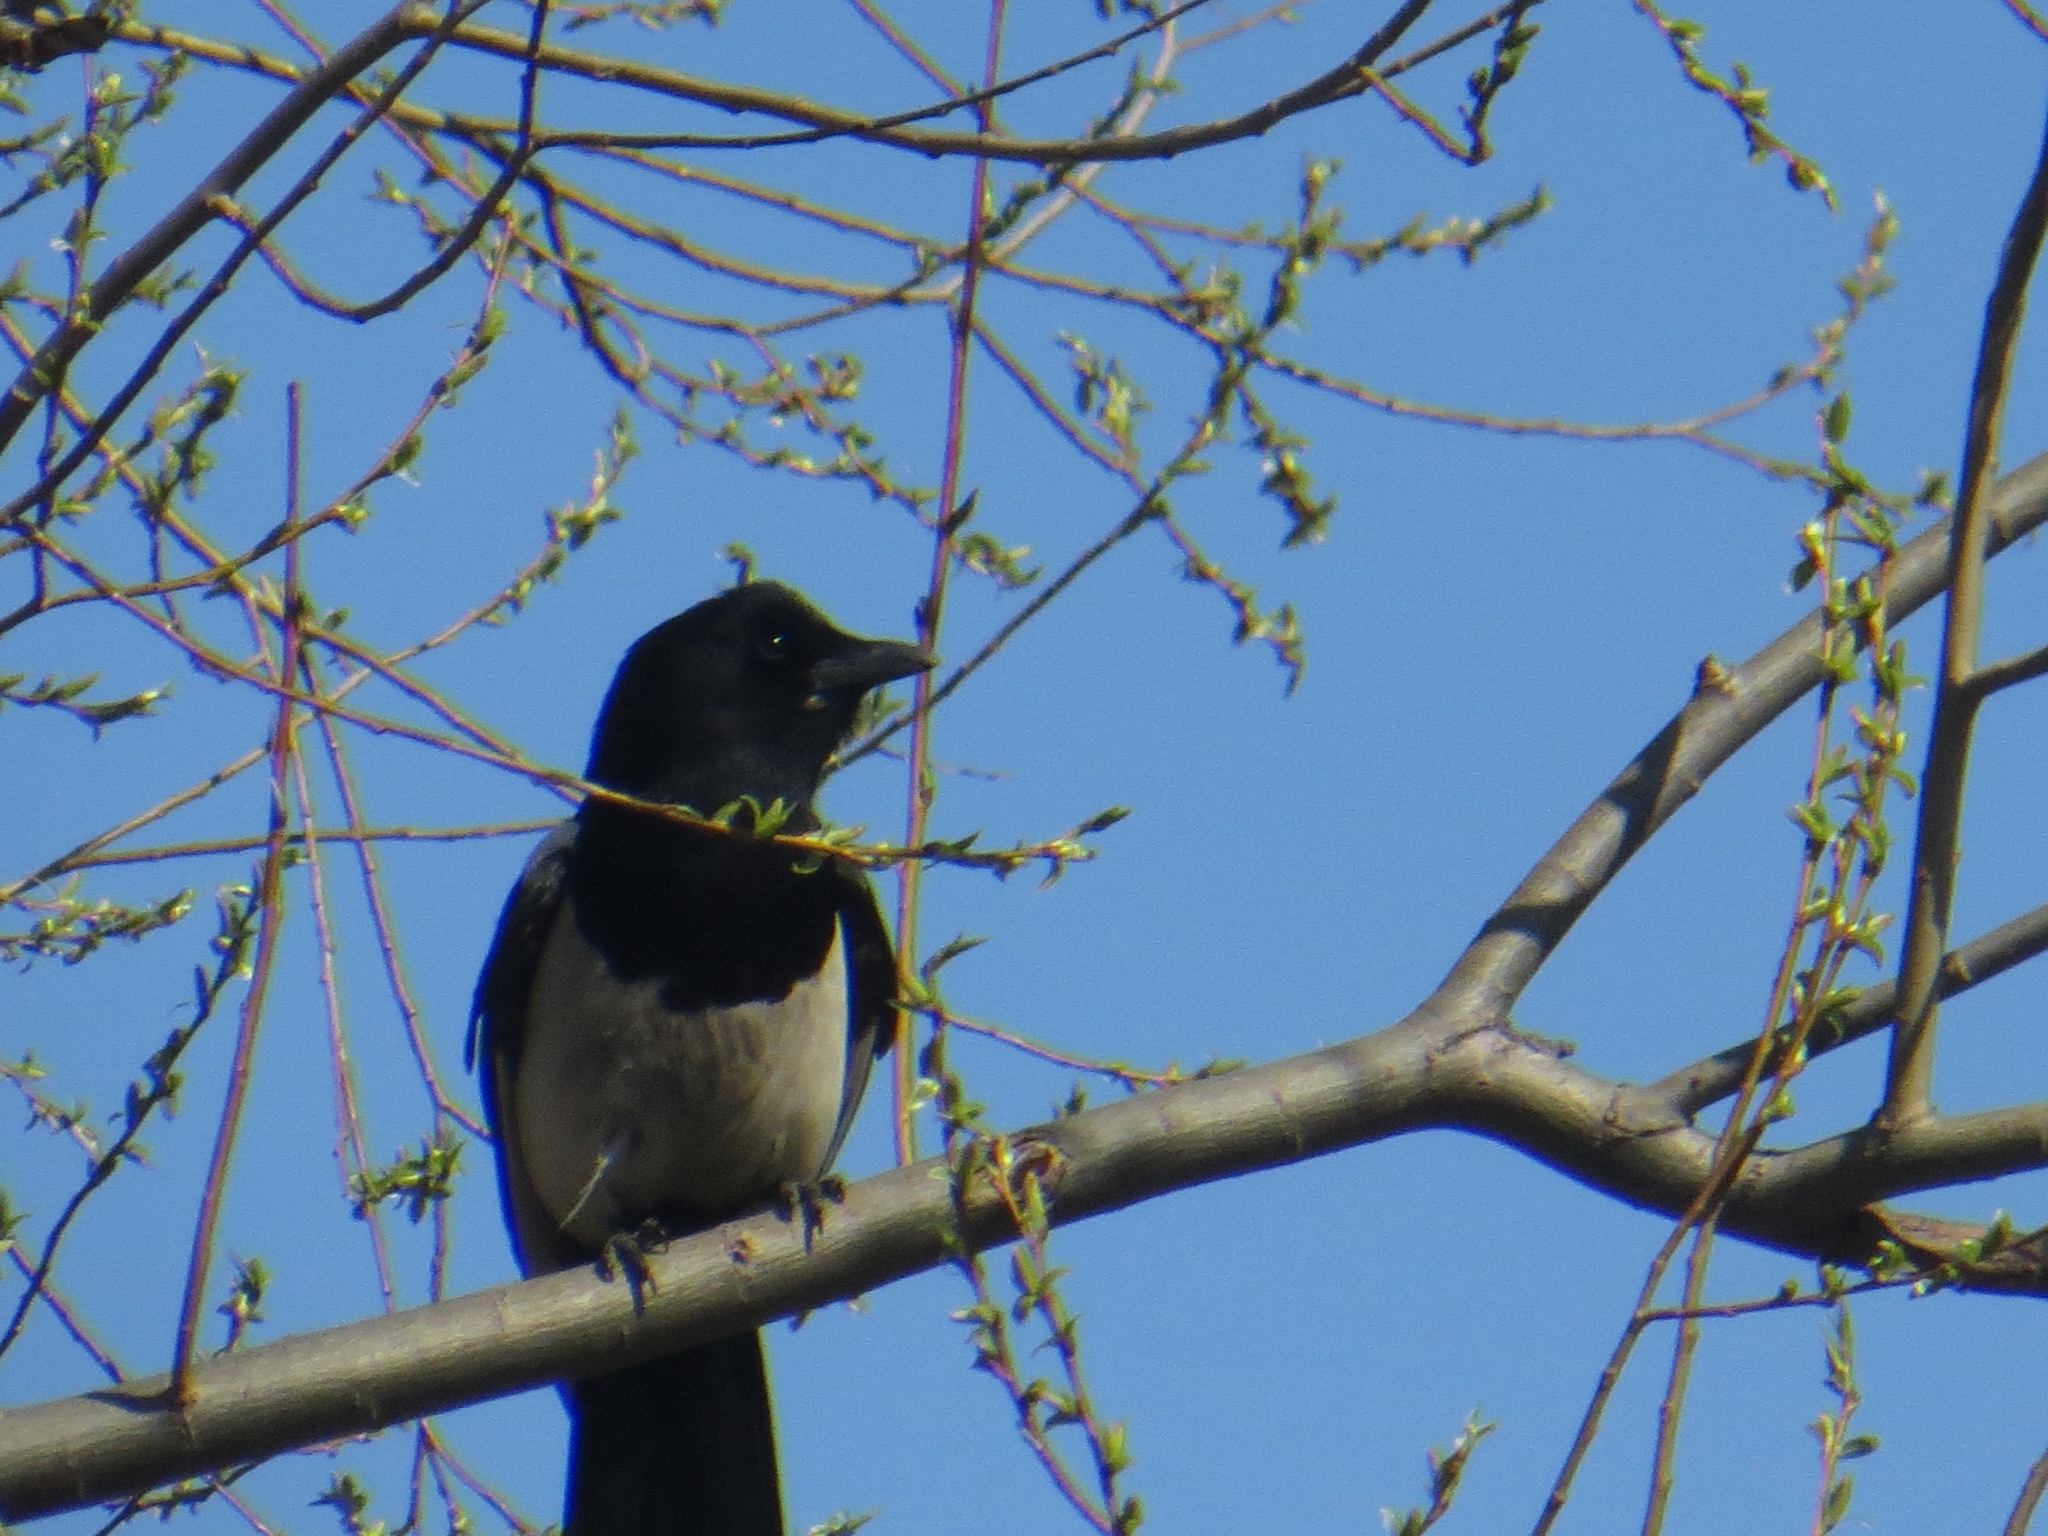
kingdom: Animalia
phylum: Chordata
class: Aves
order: Passeriformes
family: Corvidae
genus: Pica
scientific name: Pica pica
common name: Eurasian magpie
